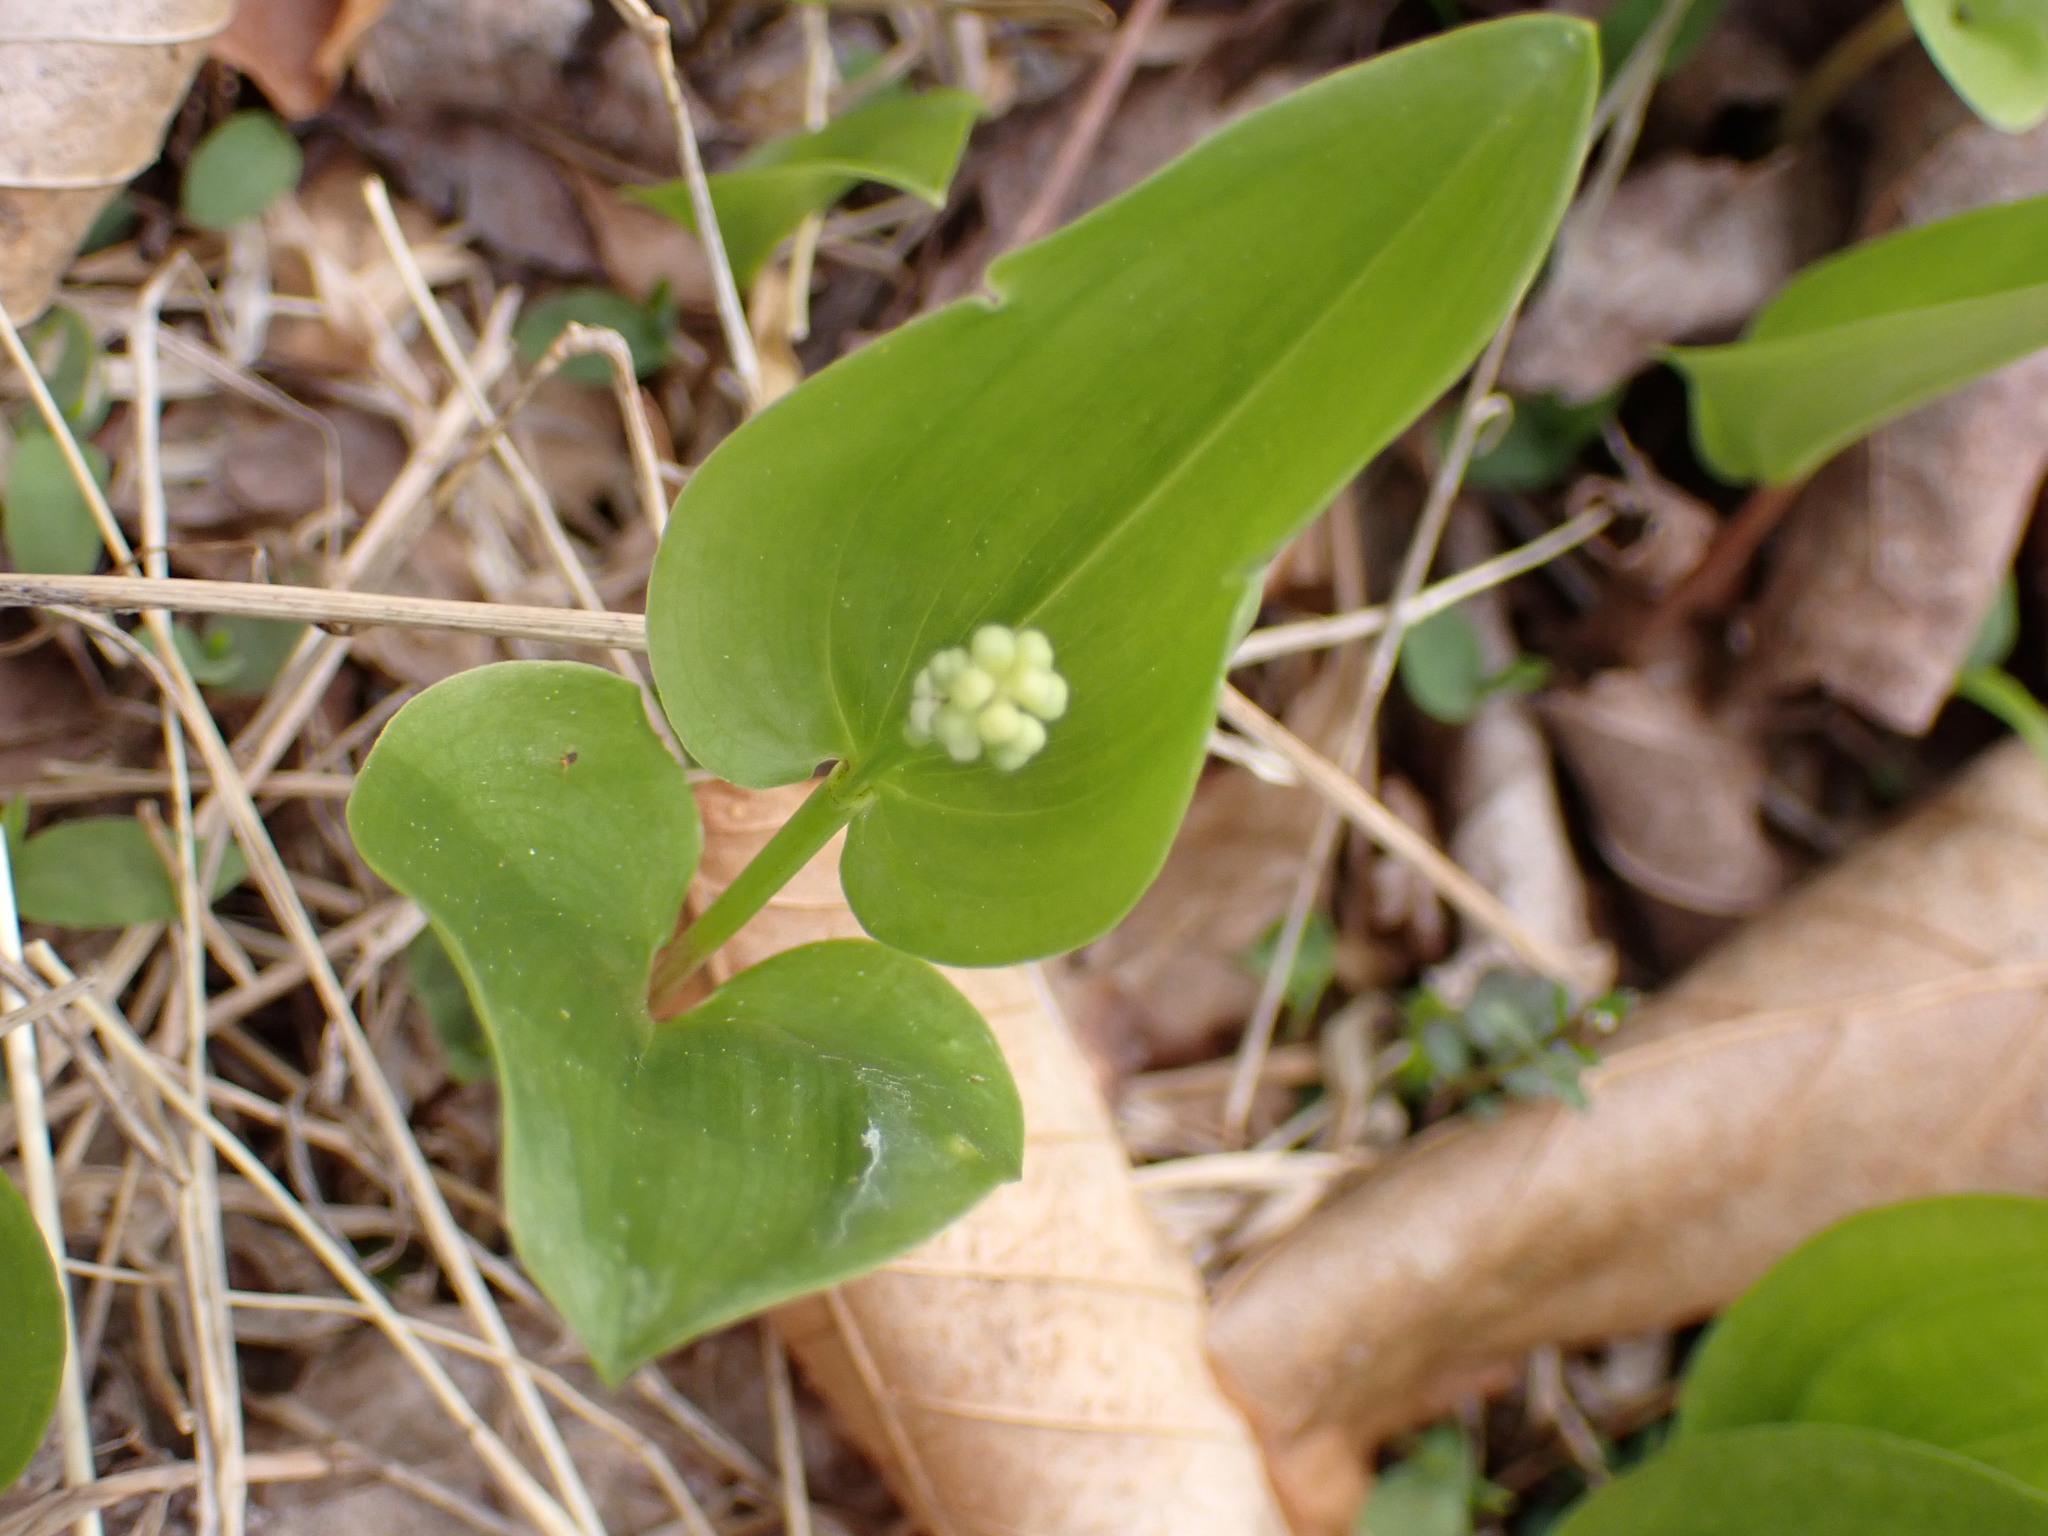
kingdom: Plantae
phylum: Tracheophyta
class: Liliopsida
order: Asparagales
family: Asparagaceae
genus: Maianthemum
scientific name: Maianthemum canadense
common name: False lily-of-the-valley
